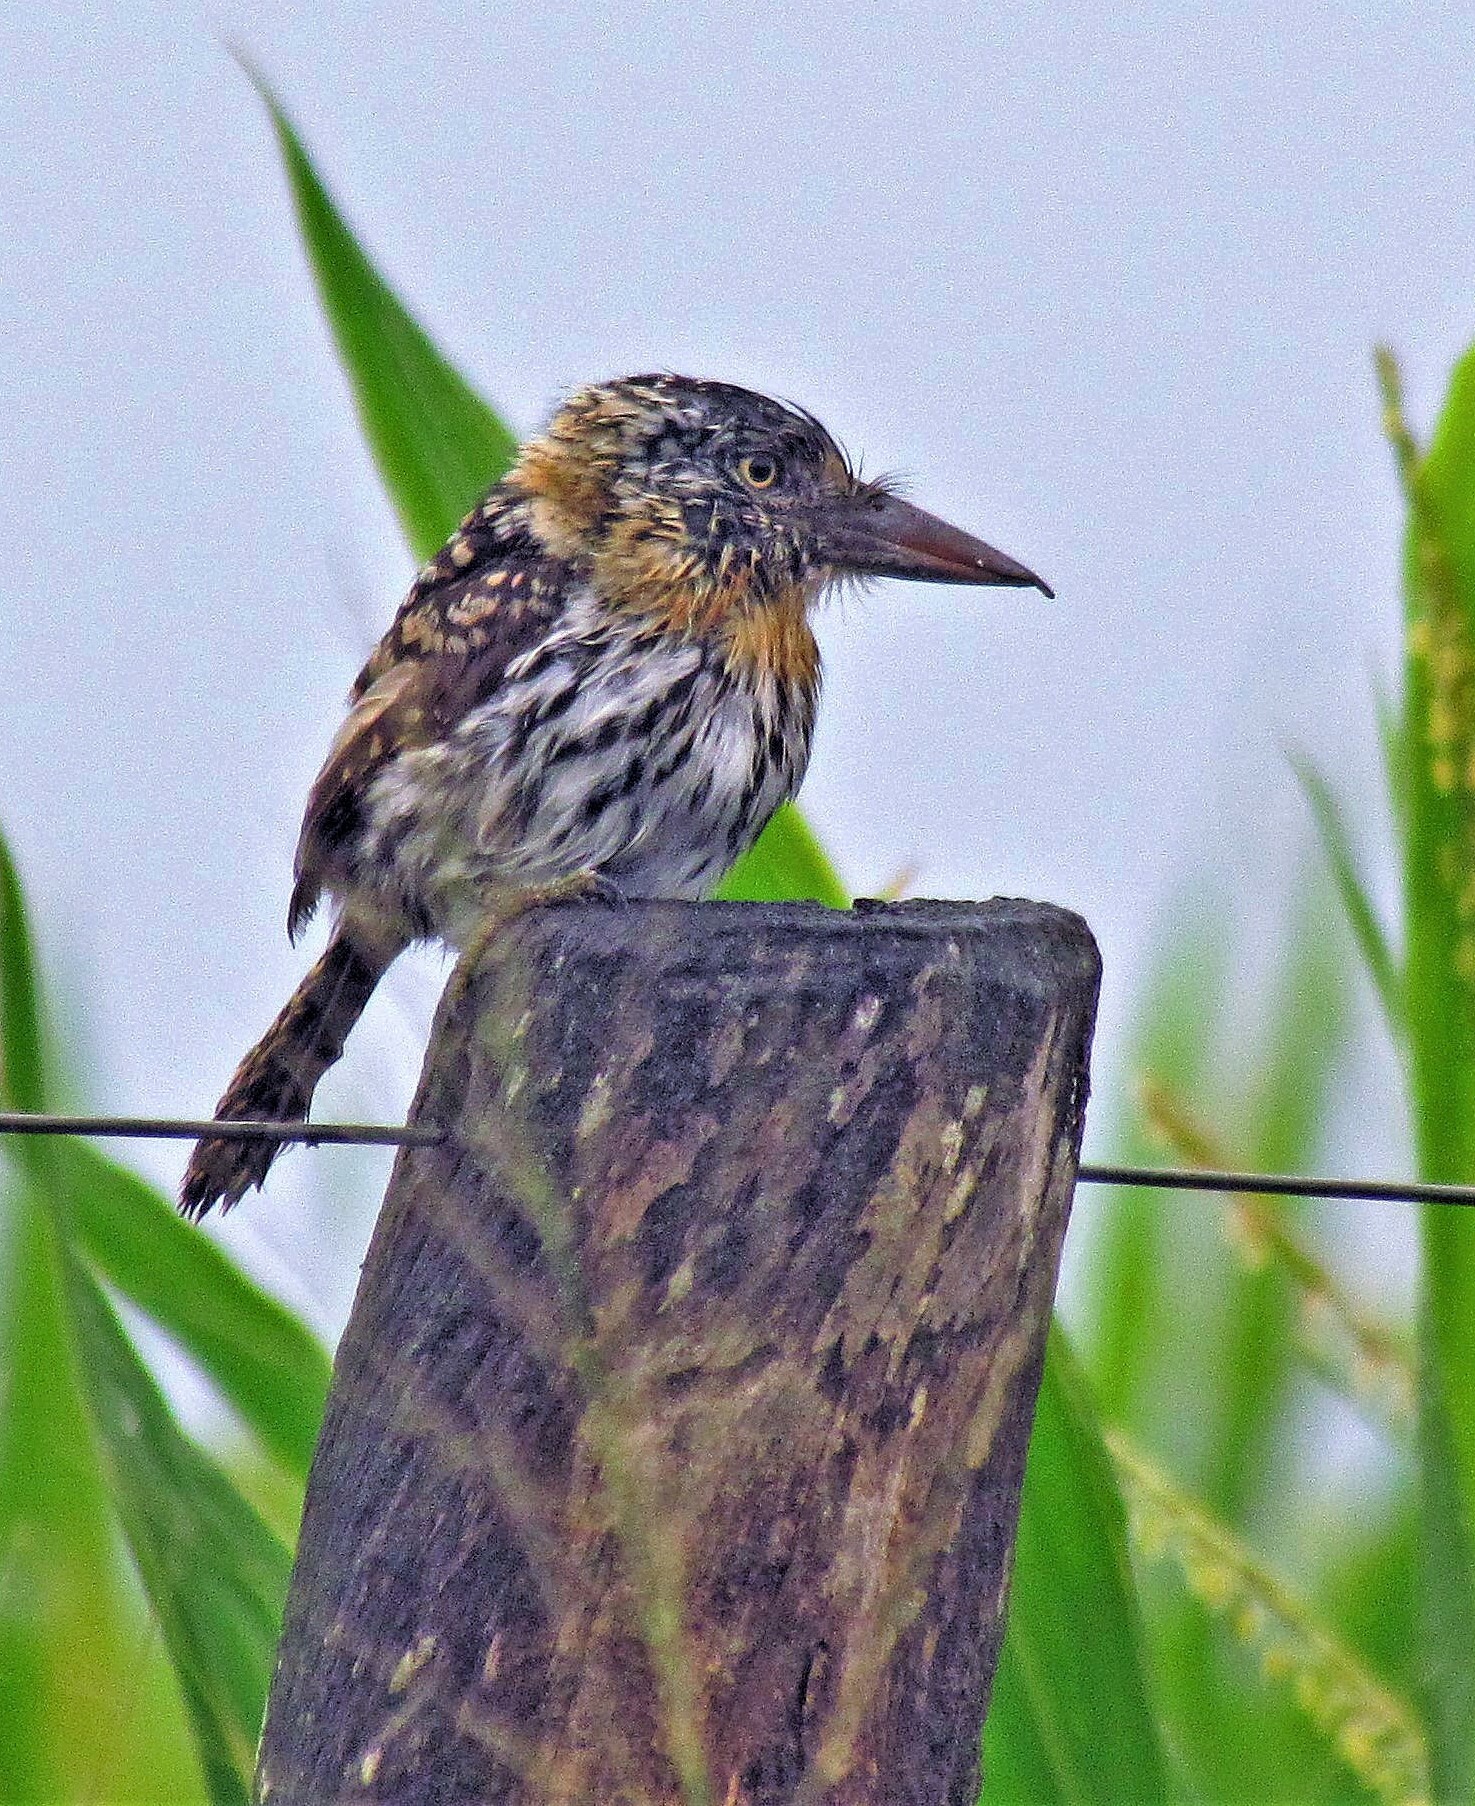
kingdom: Animalia
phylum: Chordata
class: Aves
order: Piciformes
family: Bucconidae
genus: Nystalus
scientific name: Nystalus maculatus
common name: Caatinga puffbird
